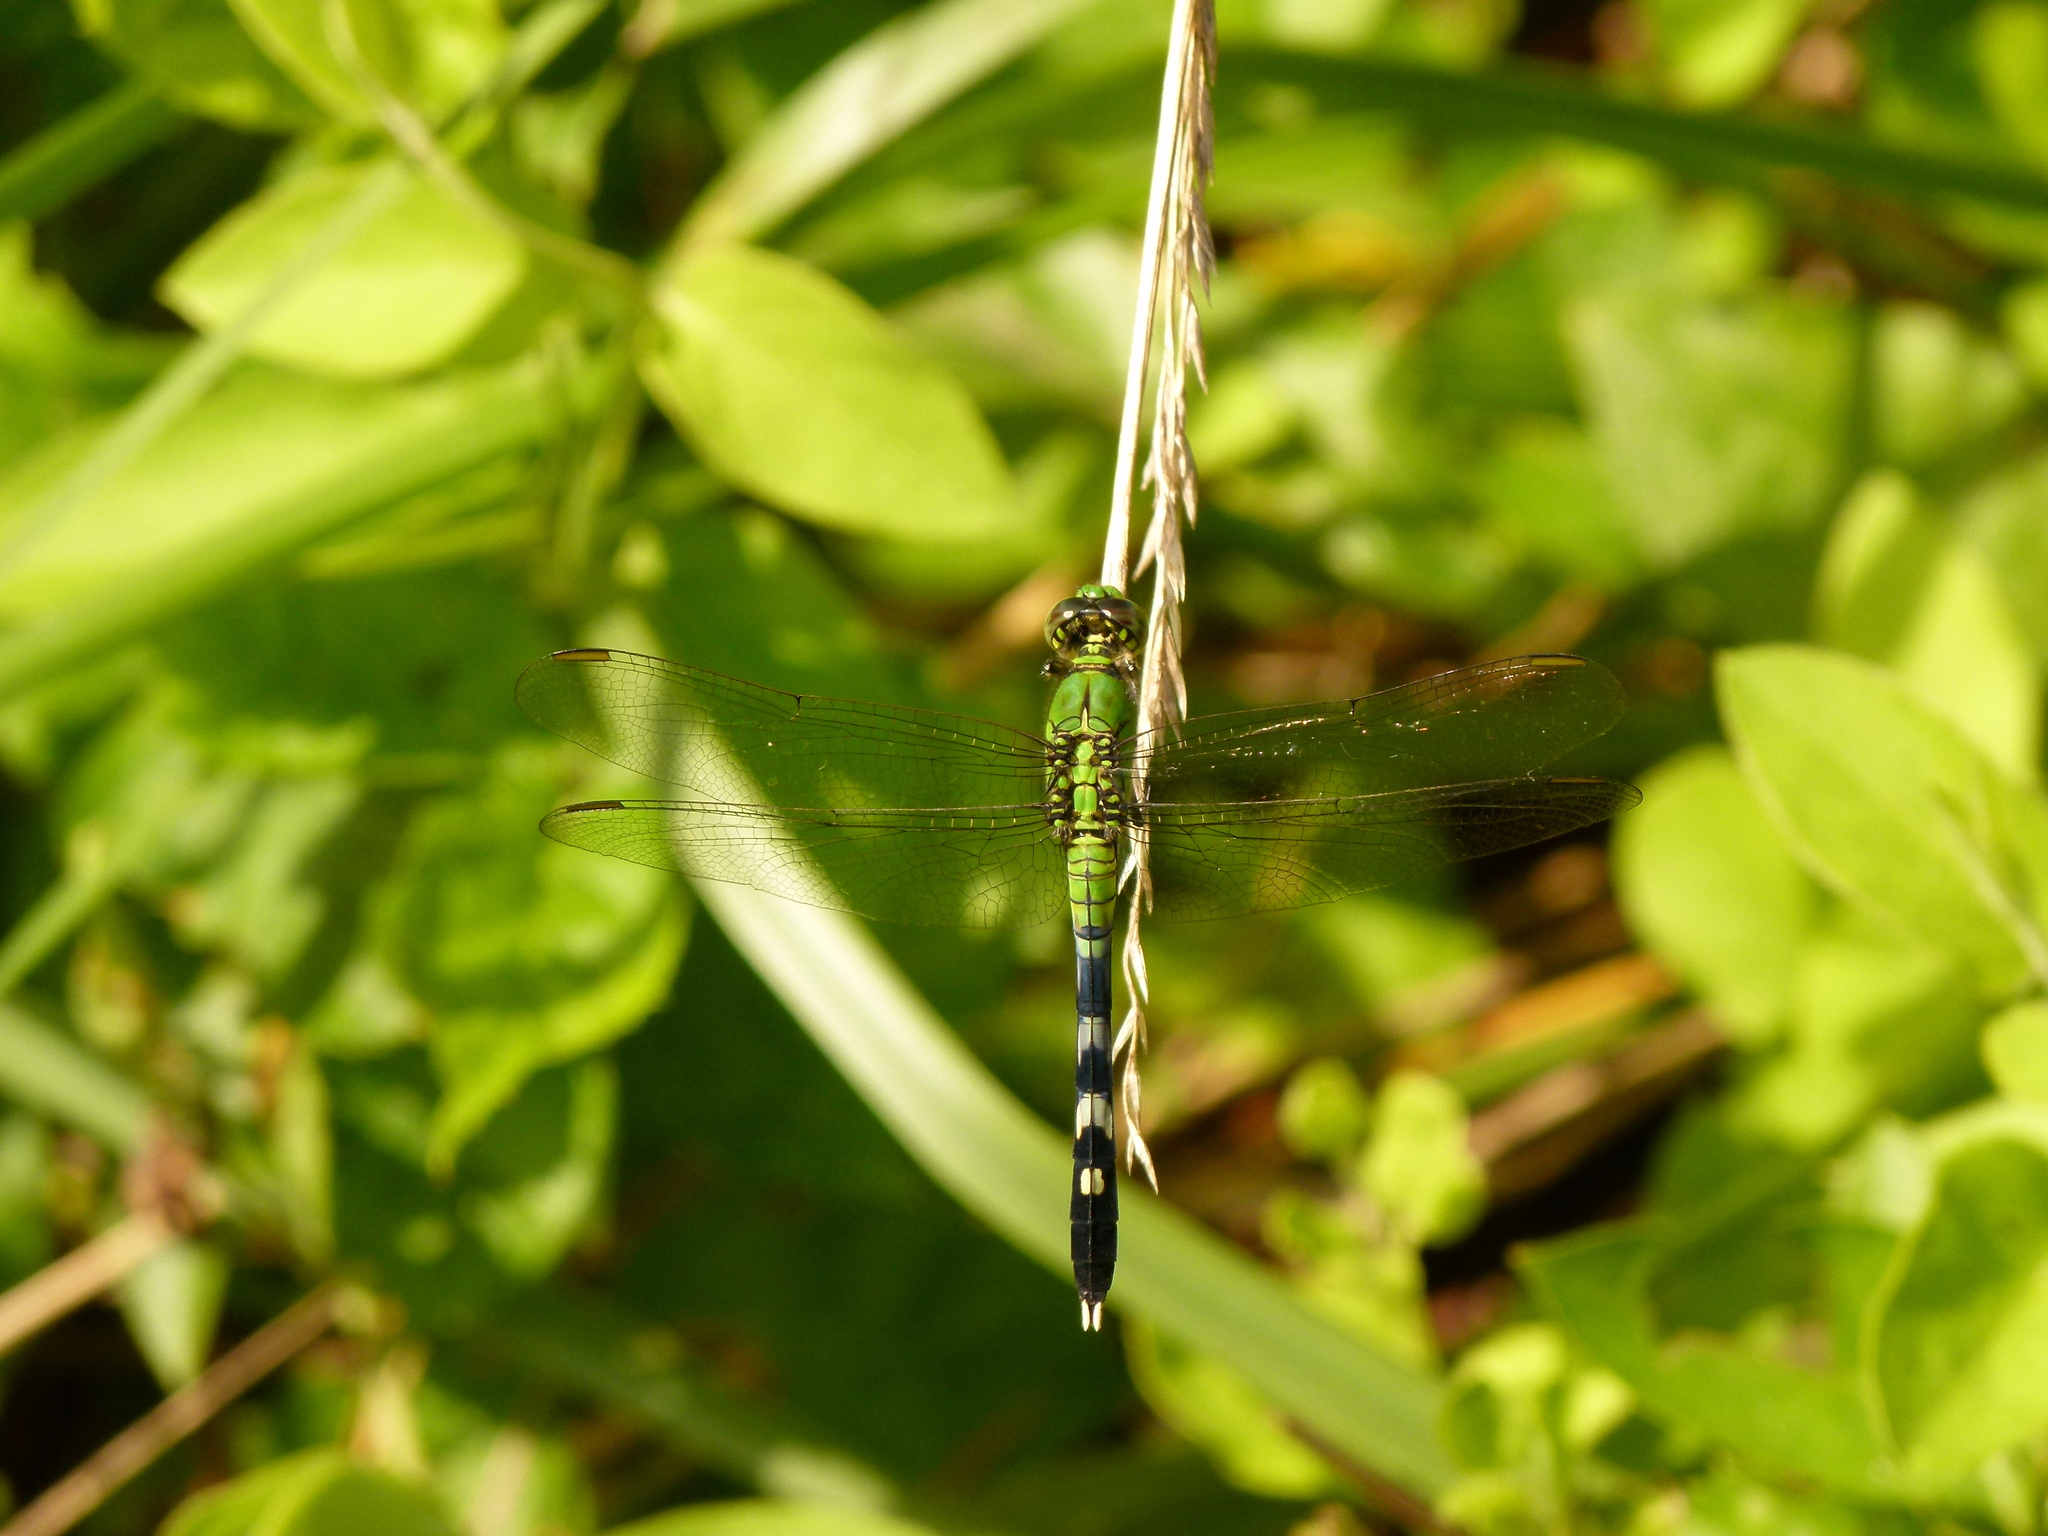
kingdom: Animalia
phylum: Arthropoda
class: Insecta
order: Odonata
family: Libellulidae
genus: Erythemis
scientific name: Erythemis simplicicollis
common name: Eastern pondhawk
